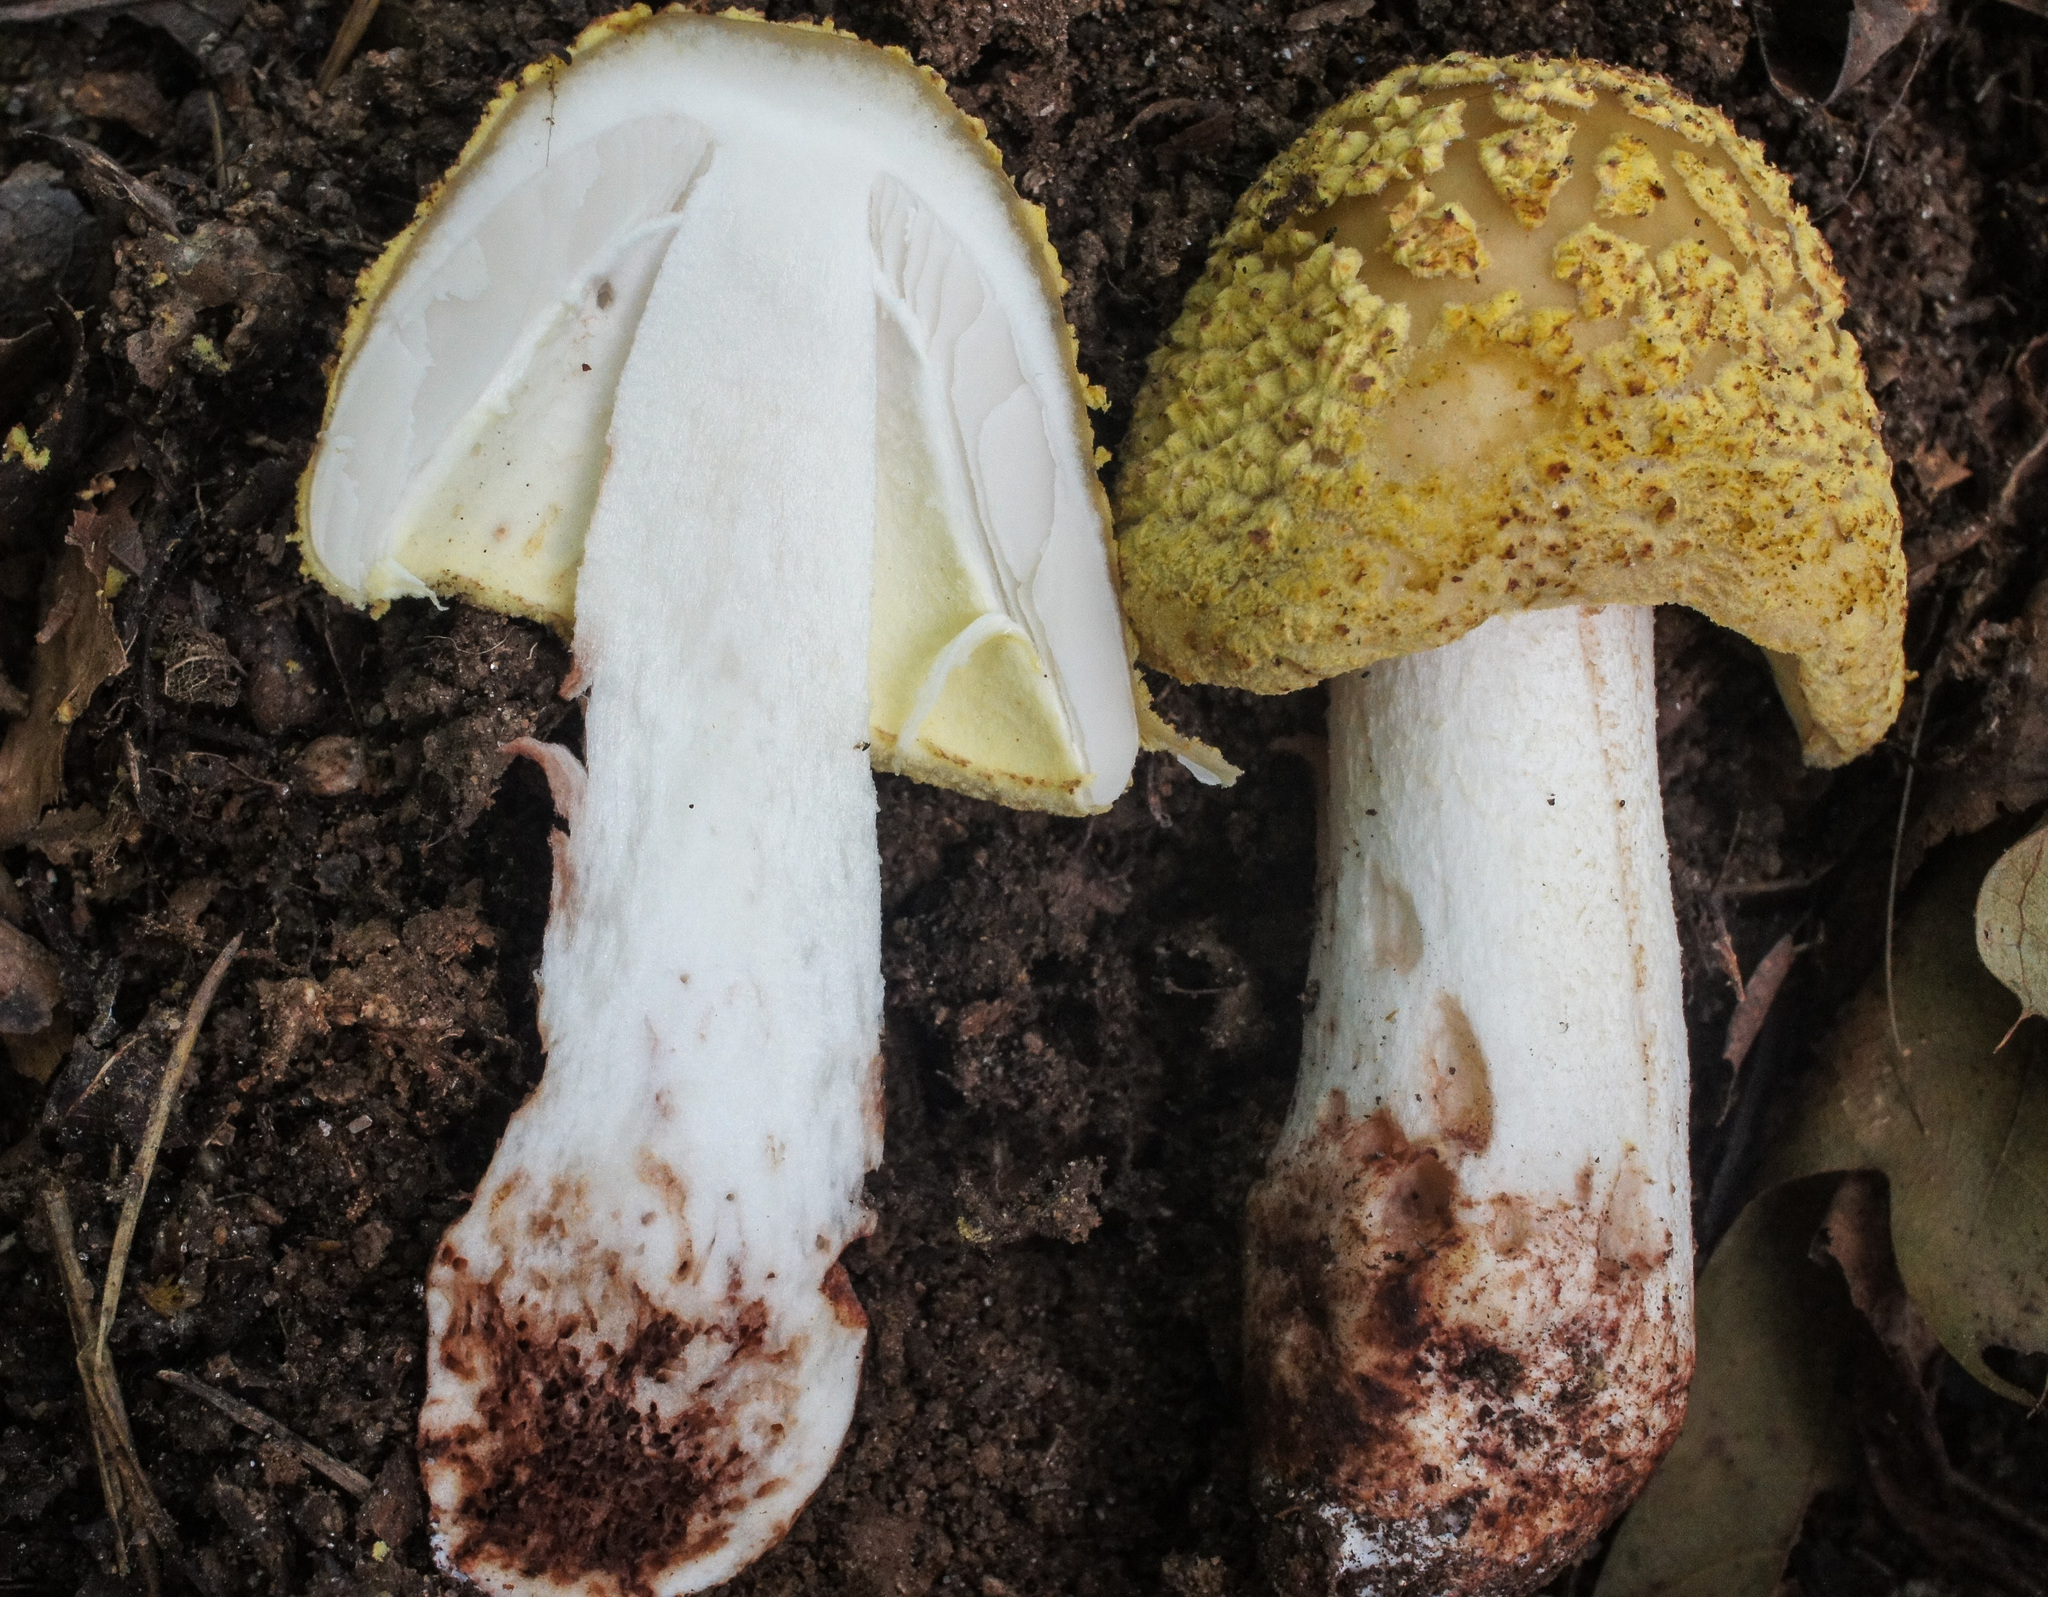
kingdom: Fungi
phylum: Basidiomycota
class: Agaricomycetes
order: Agaricales
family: Amanitaceae
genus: Amanita
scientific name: Amanita flavorubens
